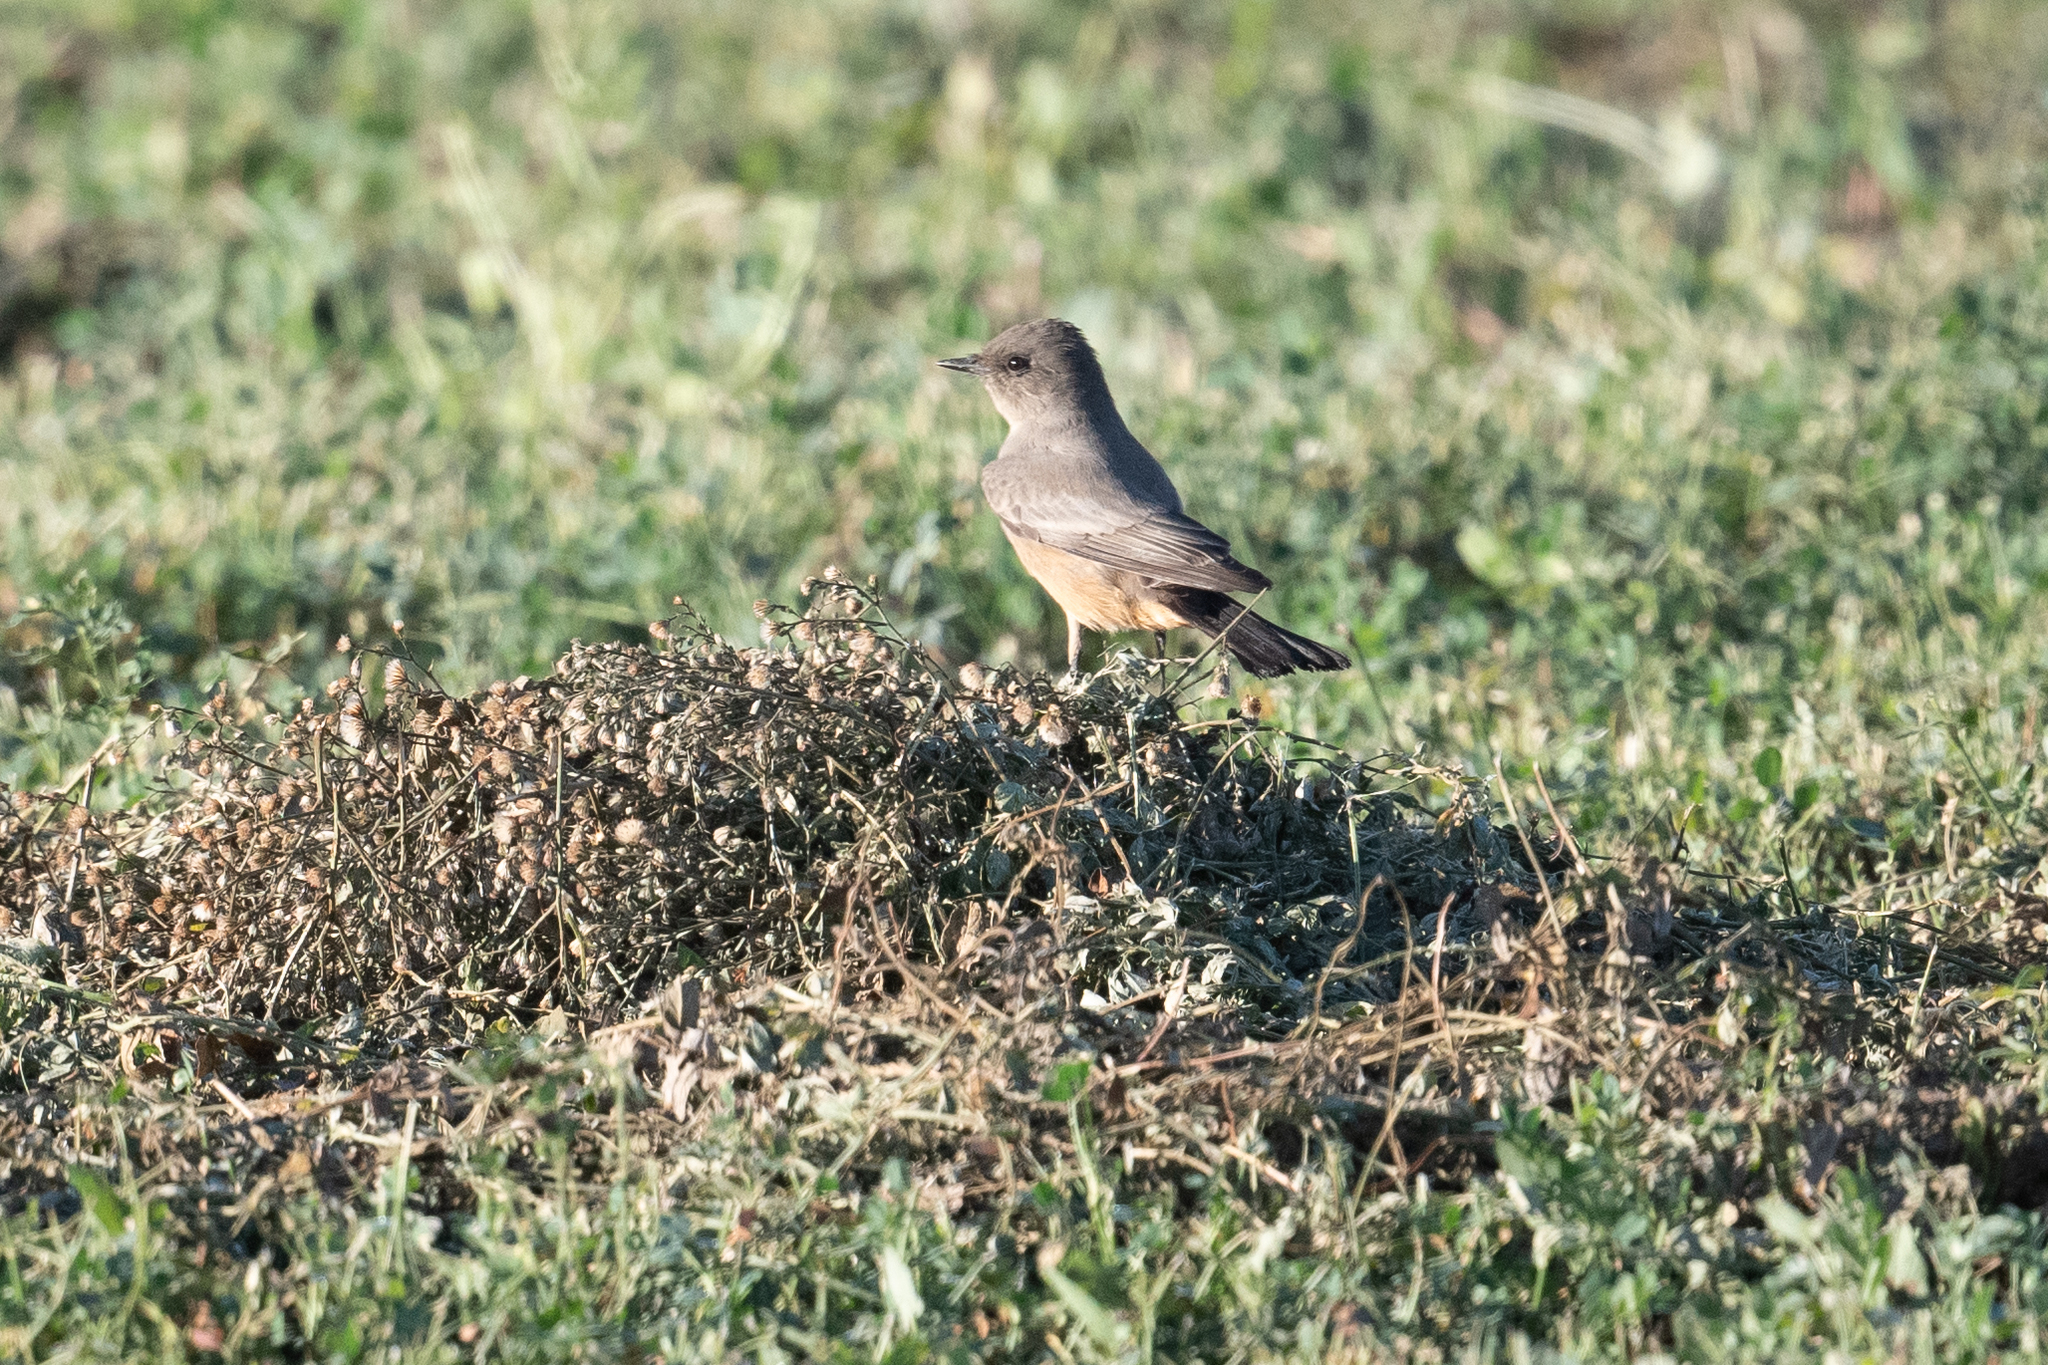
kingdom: Animalia
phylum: Chordata
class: Aves
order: Passeriformes
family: Tyrannidae
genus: Sayornis
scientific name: Sayornis saya
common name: Say's phoebe
